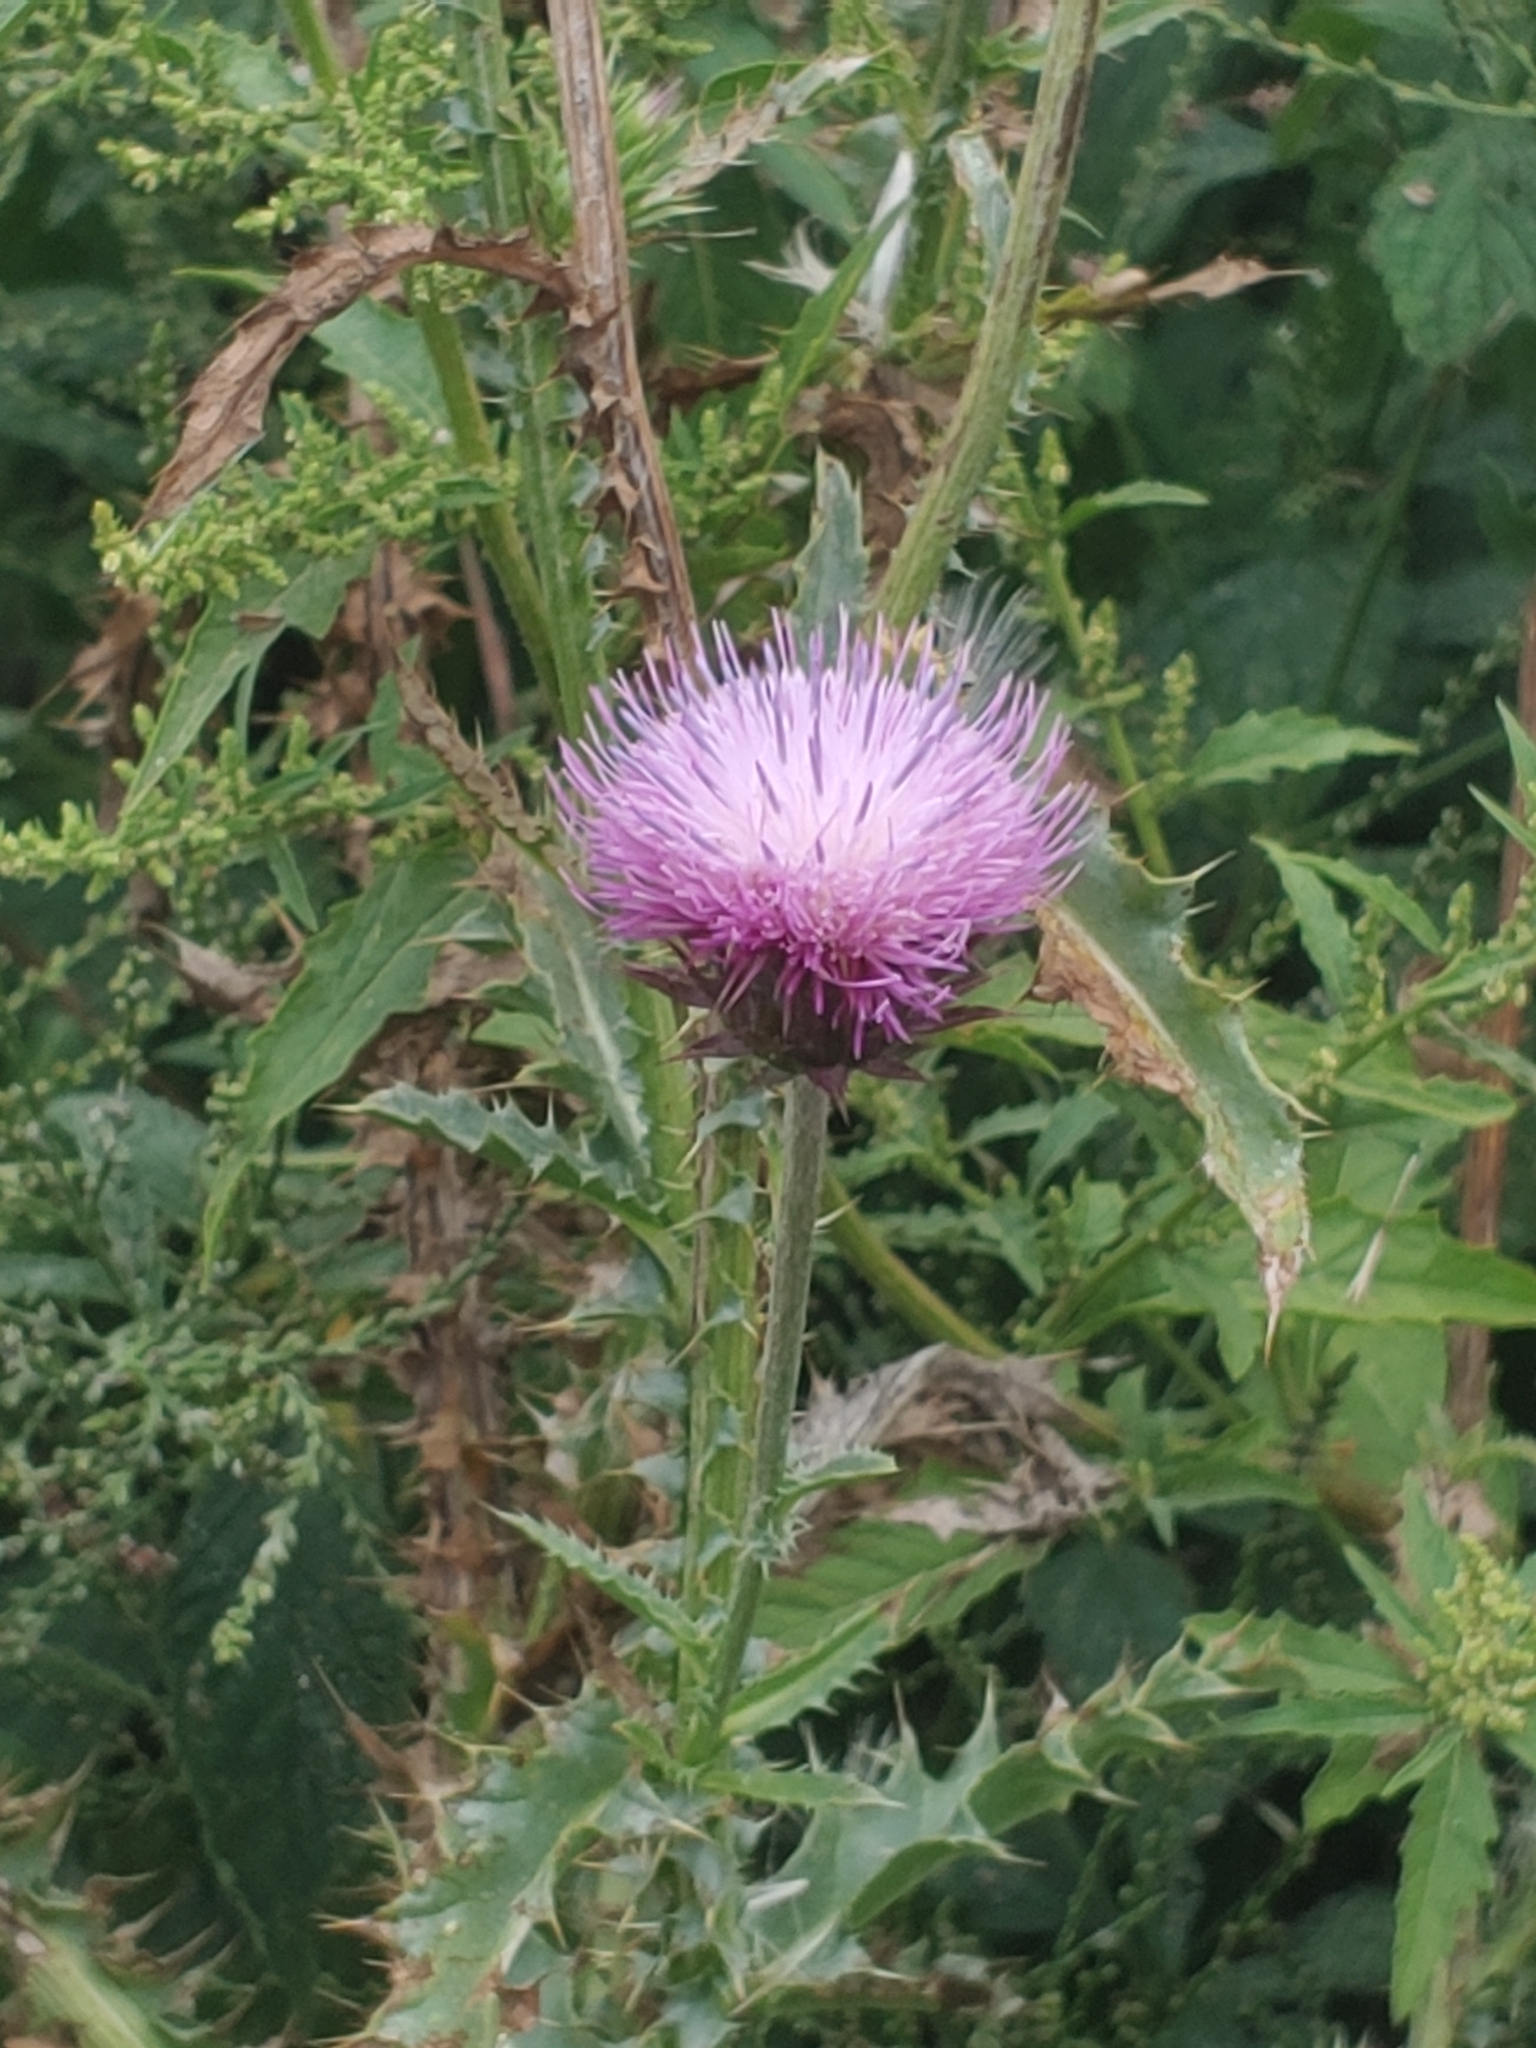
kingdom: Plantae
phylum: Tracheophyta
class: Magnoliopsida
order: Asterales
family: Asteraceae
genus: Carduus
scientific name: Carduus nutans
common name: Musk thistle
